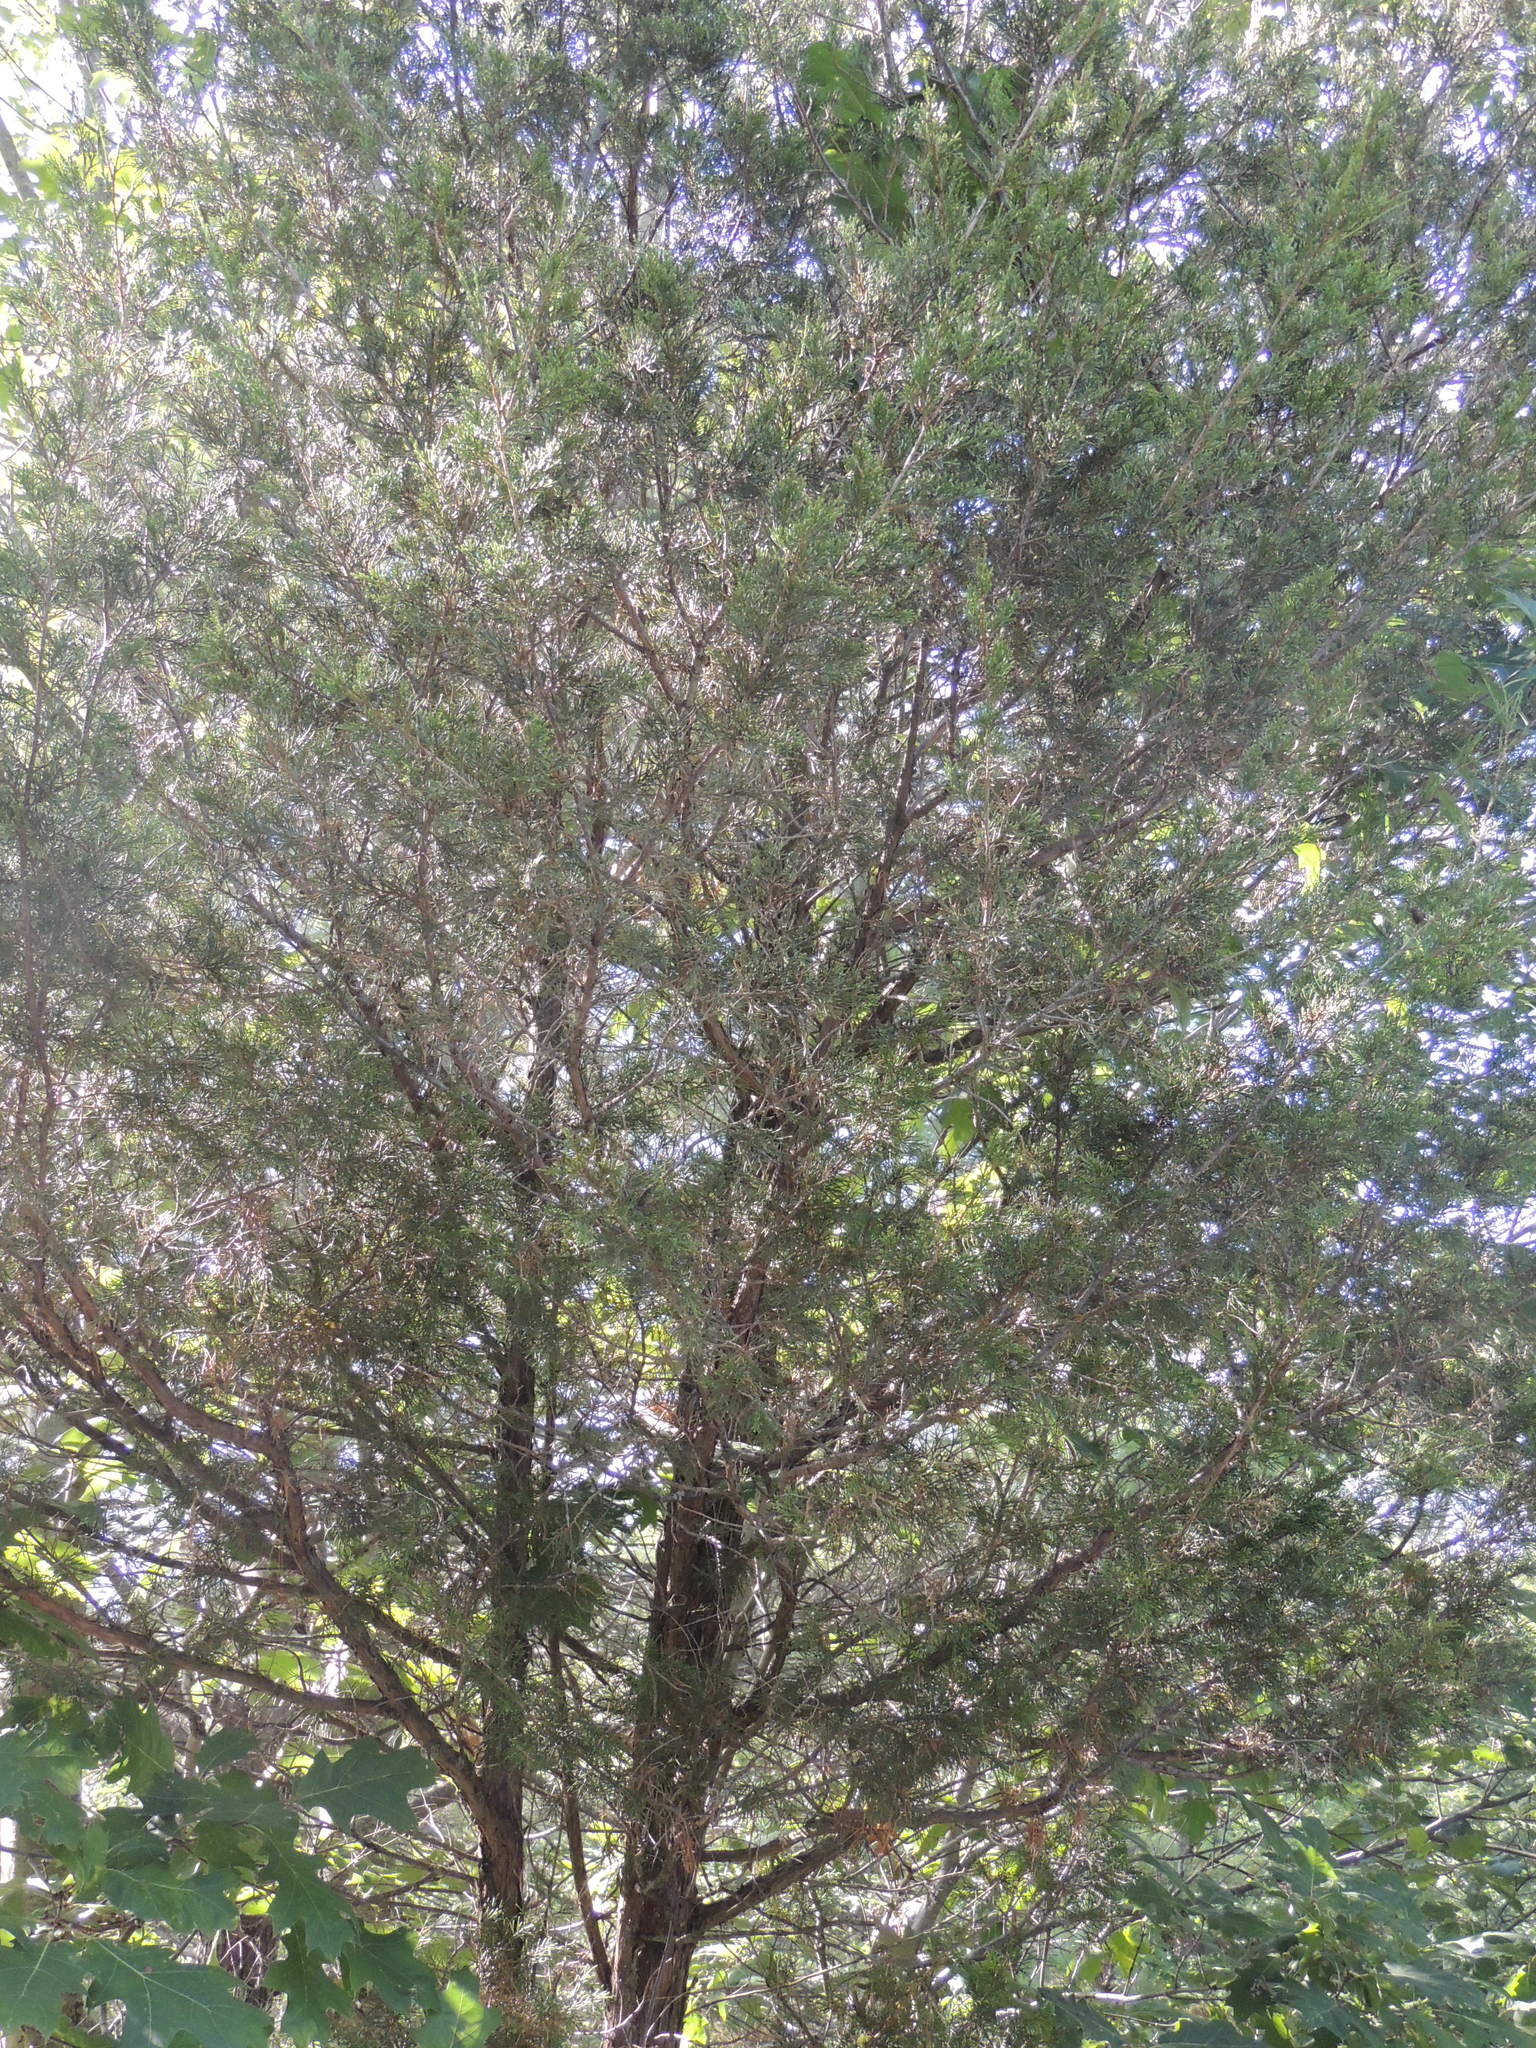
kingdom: Plantae
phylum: Tracheophyta
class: Pinopsida
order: Pinales
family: Cupressaceae
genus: Juniperus
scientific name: Juniperus virginiana
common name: Red juniper
